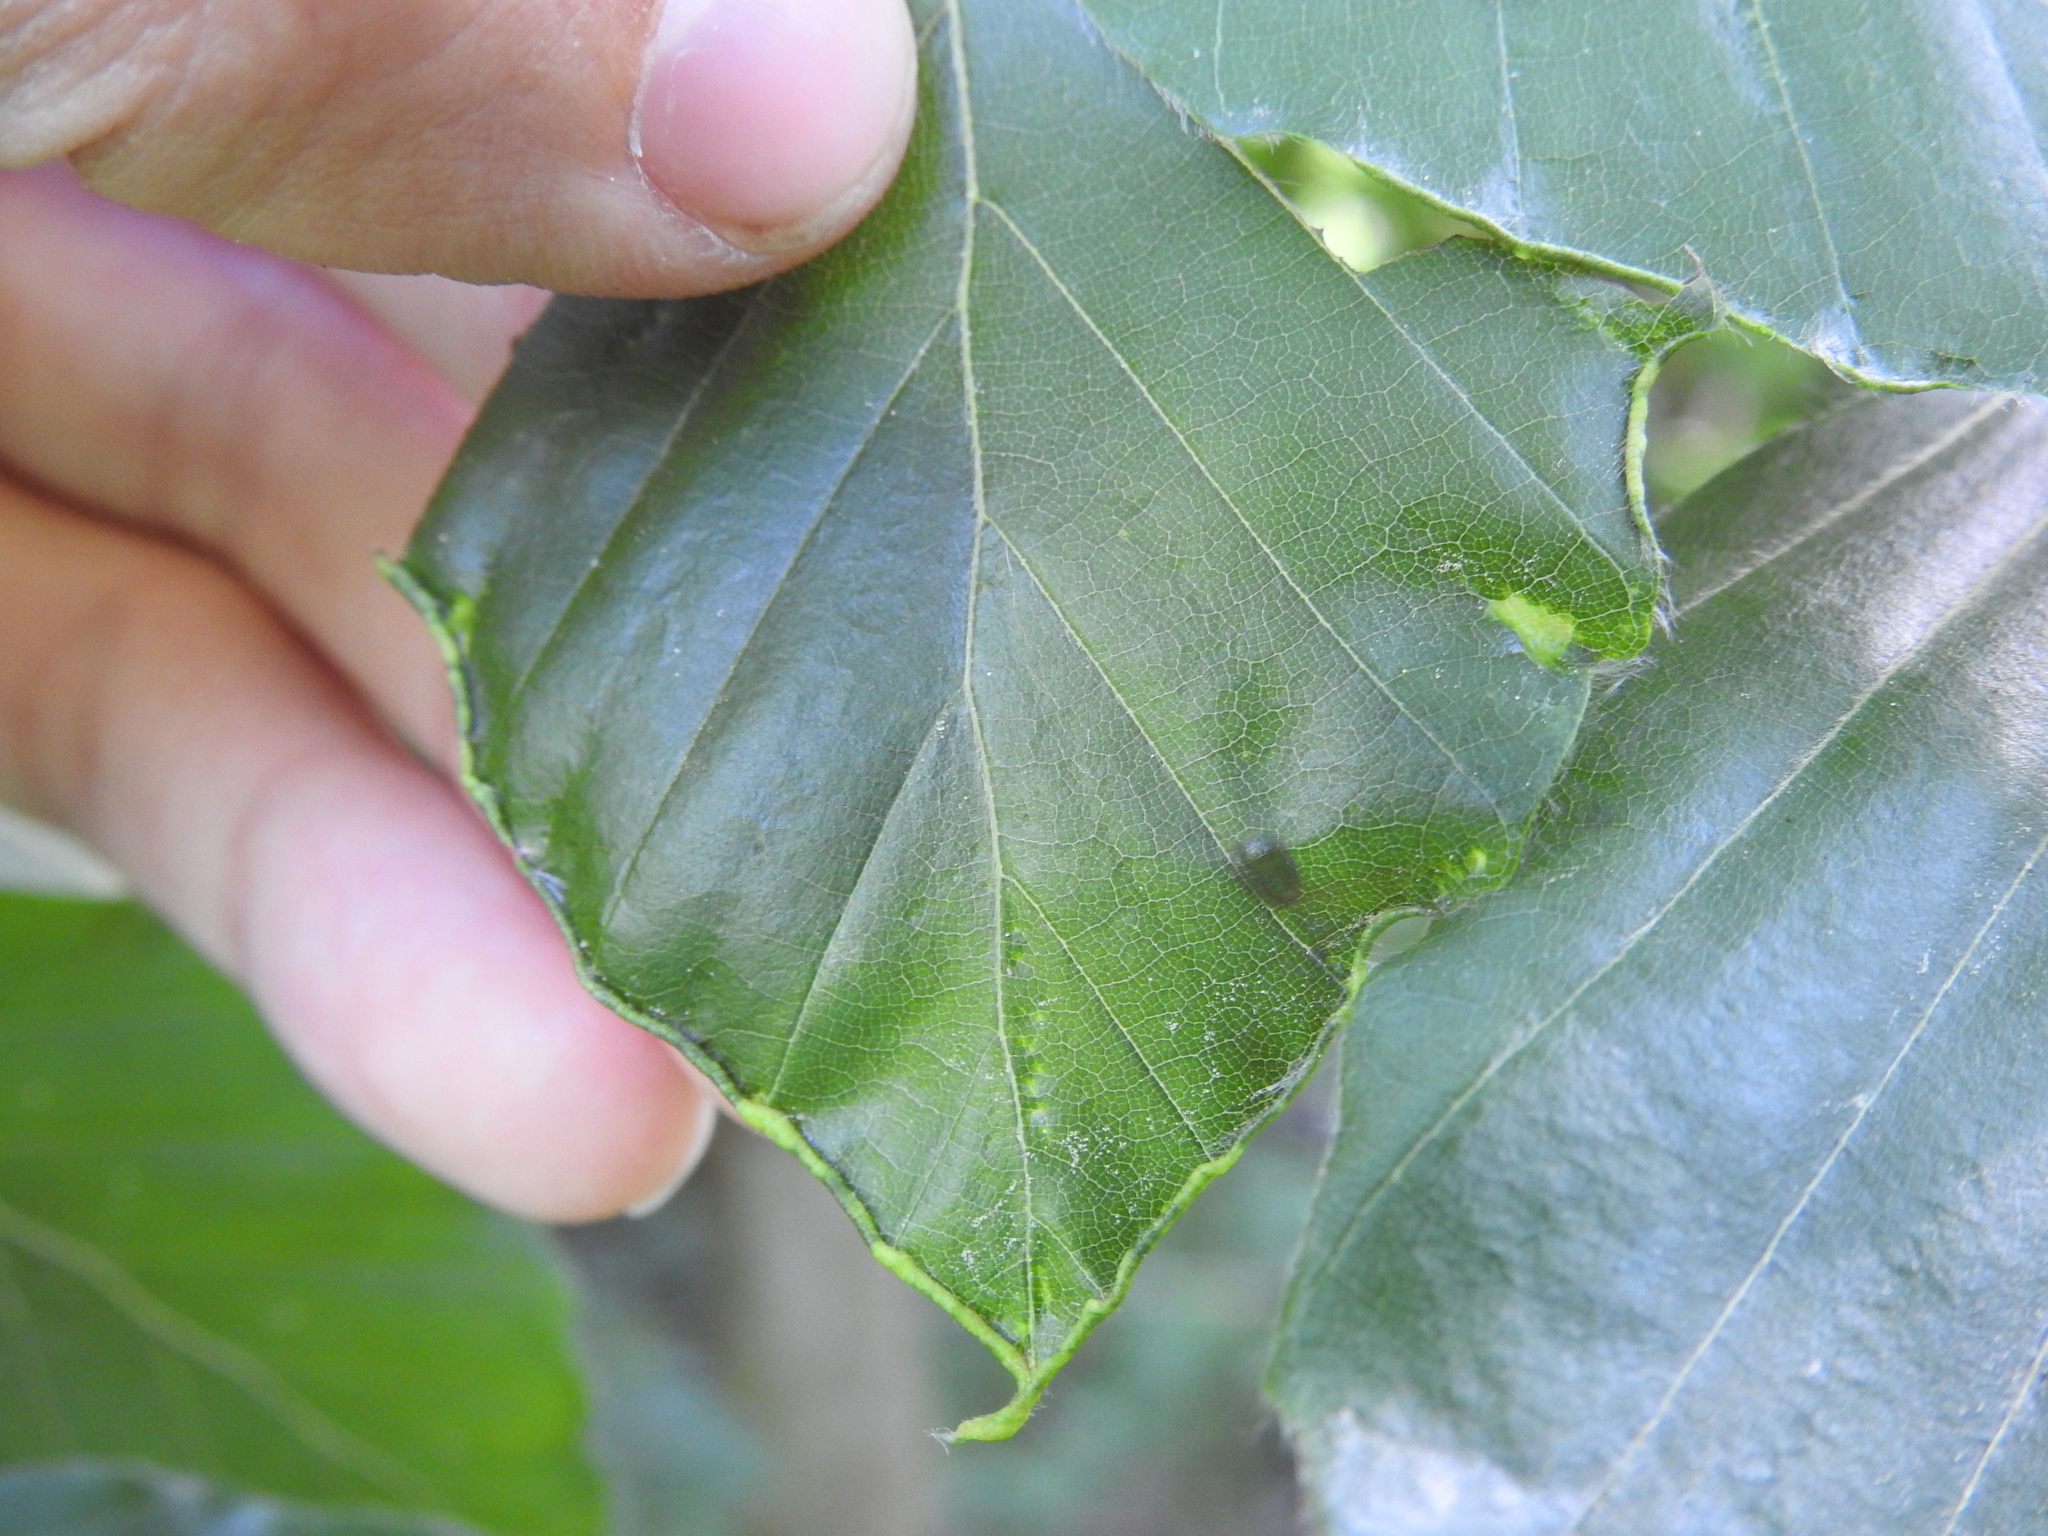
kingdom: Animalia
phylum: Arthropoda
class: Arachnida
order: Trombidiformes
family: Eriophyidae
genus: Acalitus
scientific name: Acalitus stenaspis
